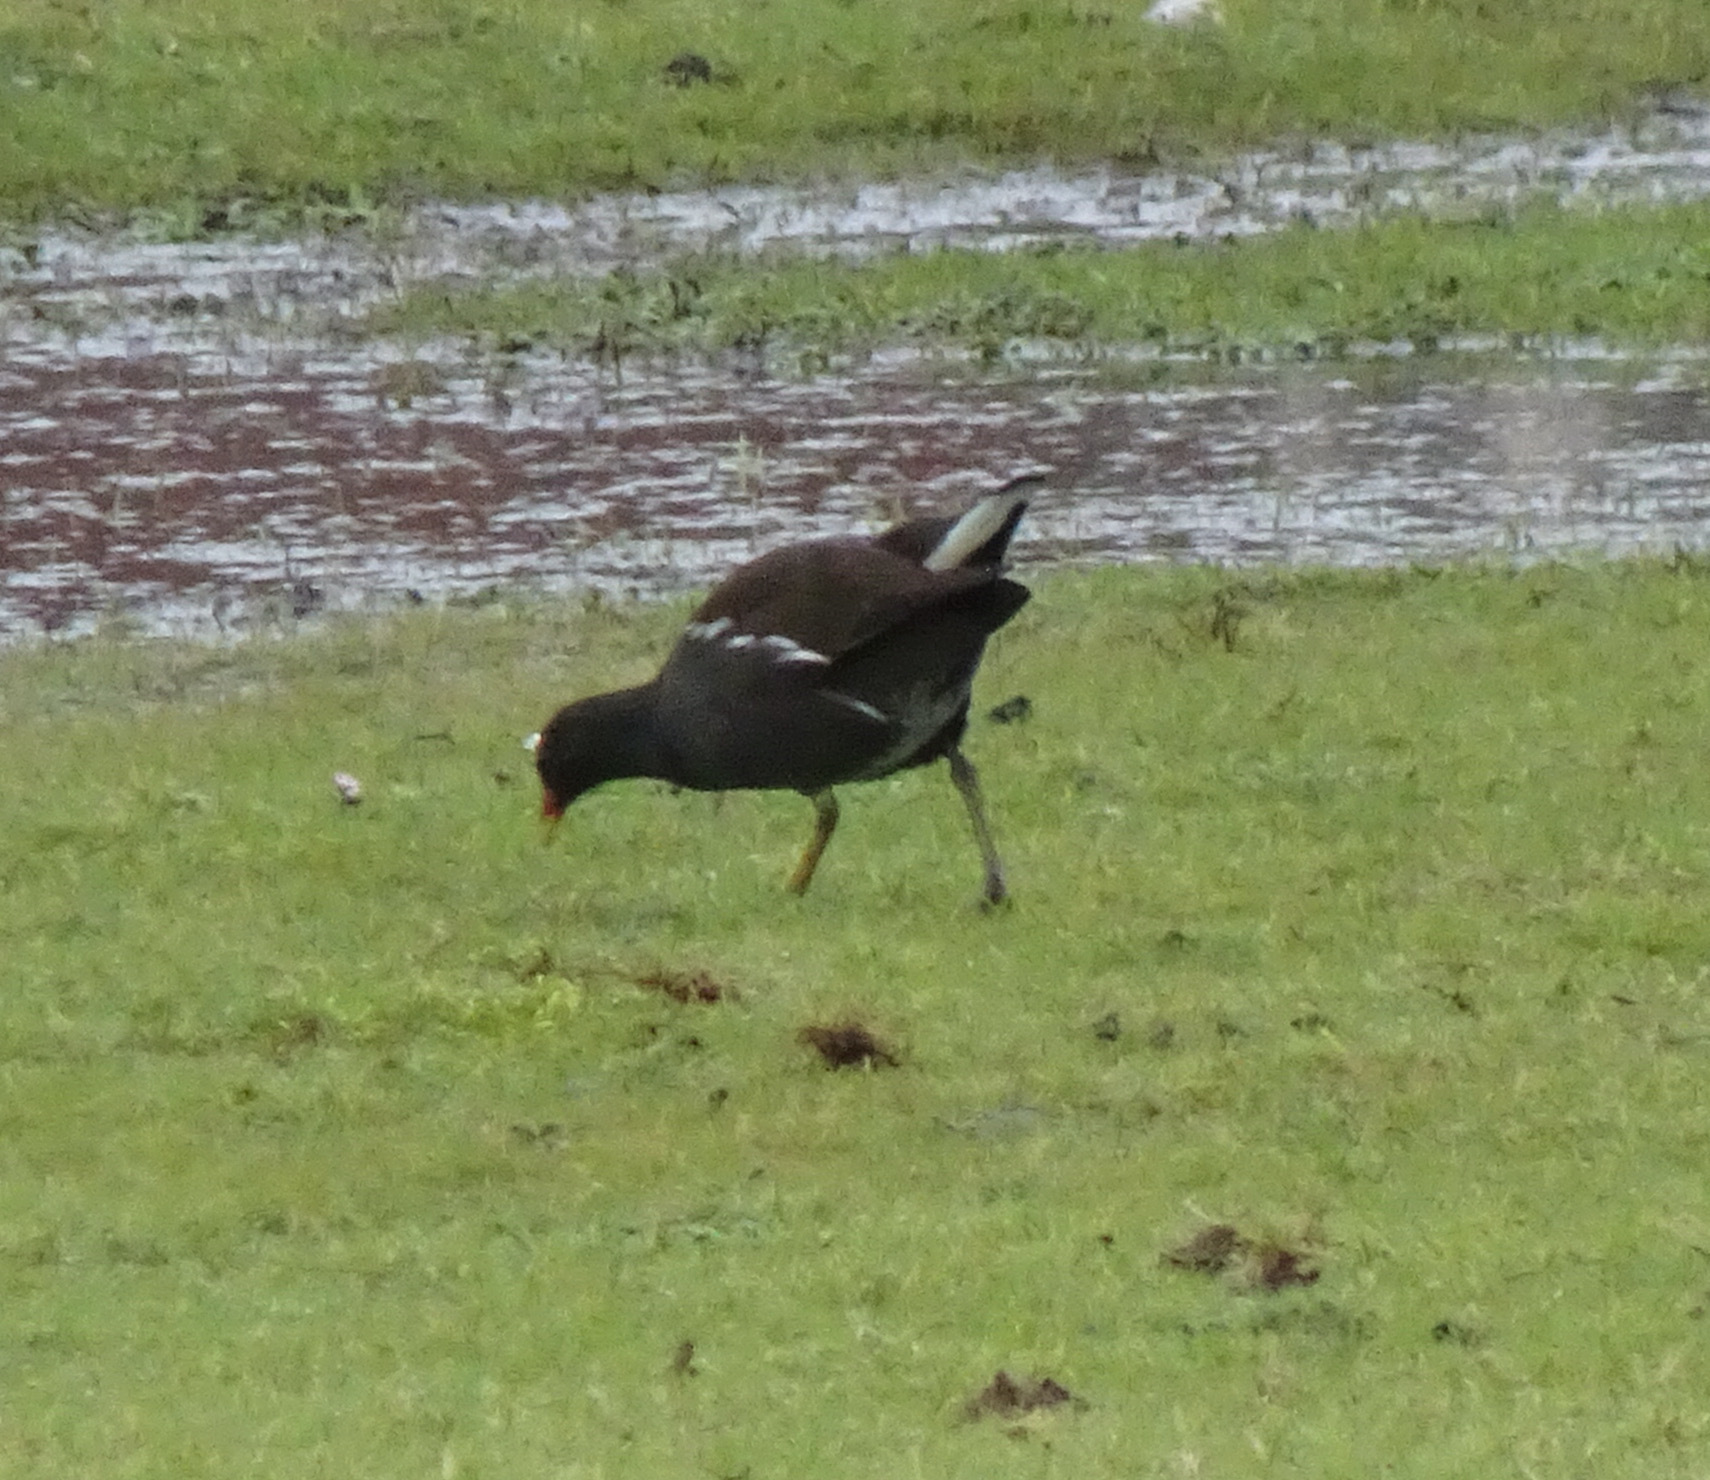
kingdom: Animalia
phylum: Chordata
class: Aves
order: Gruiformes
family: Rallidae
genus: Gallinula
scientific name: Gallinula chloropus
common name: Common moorhen
